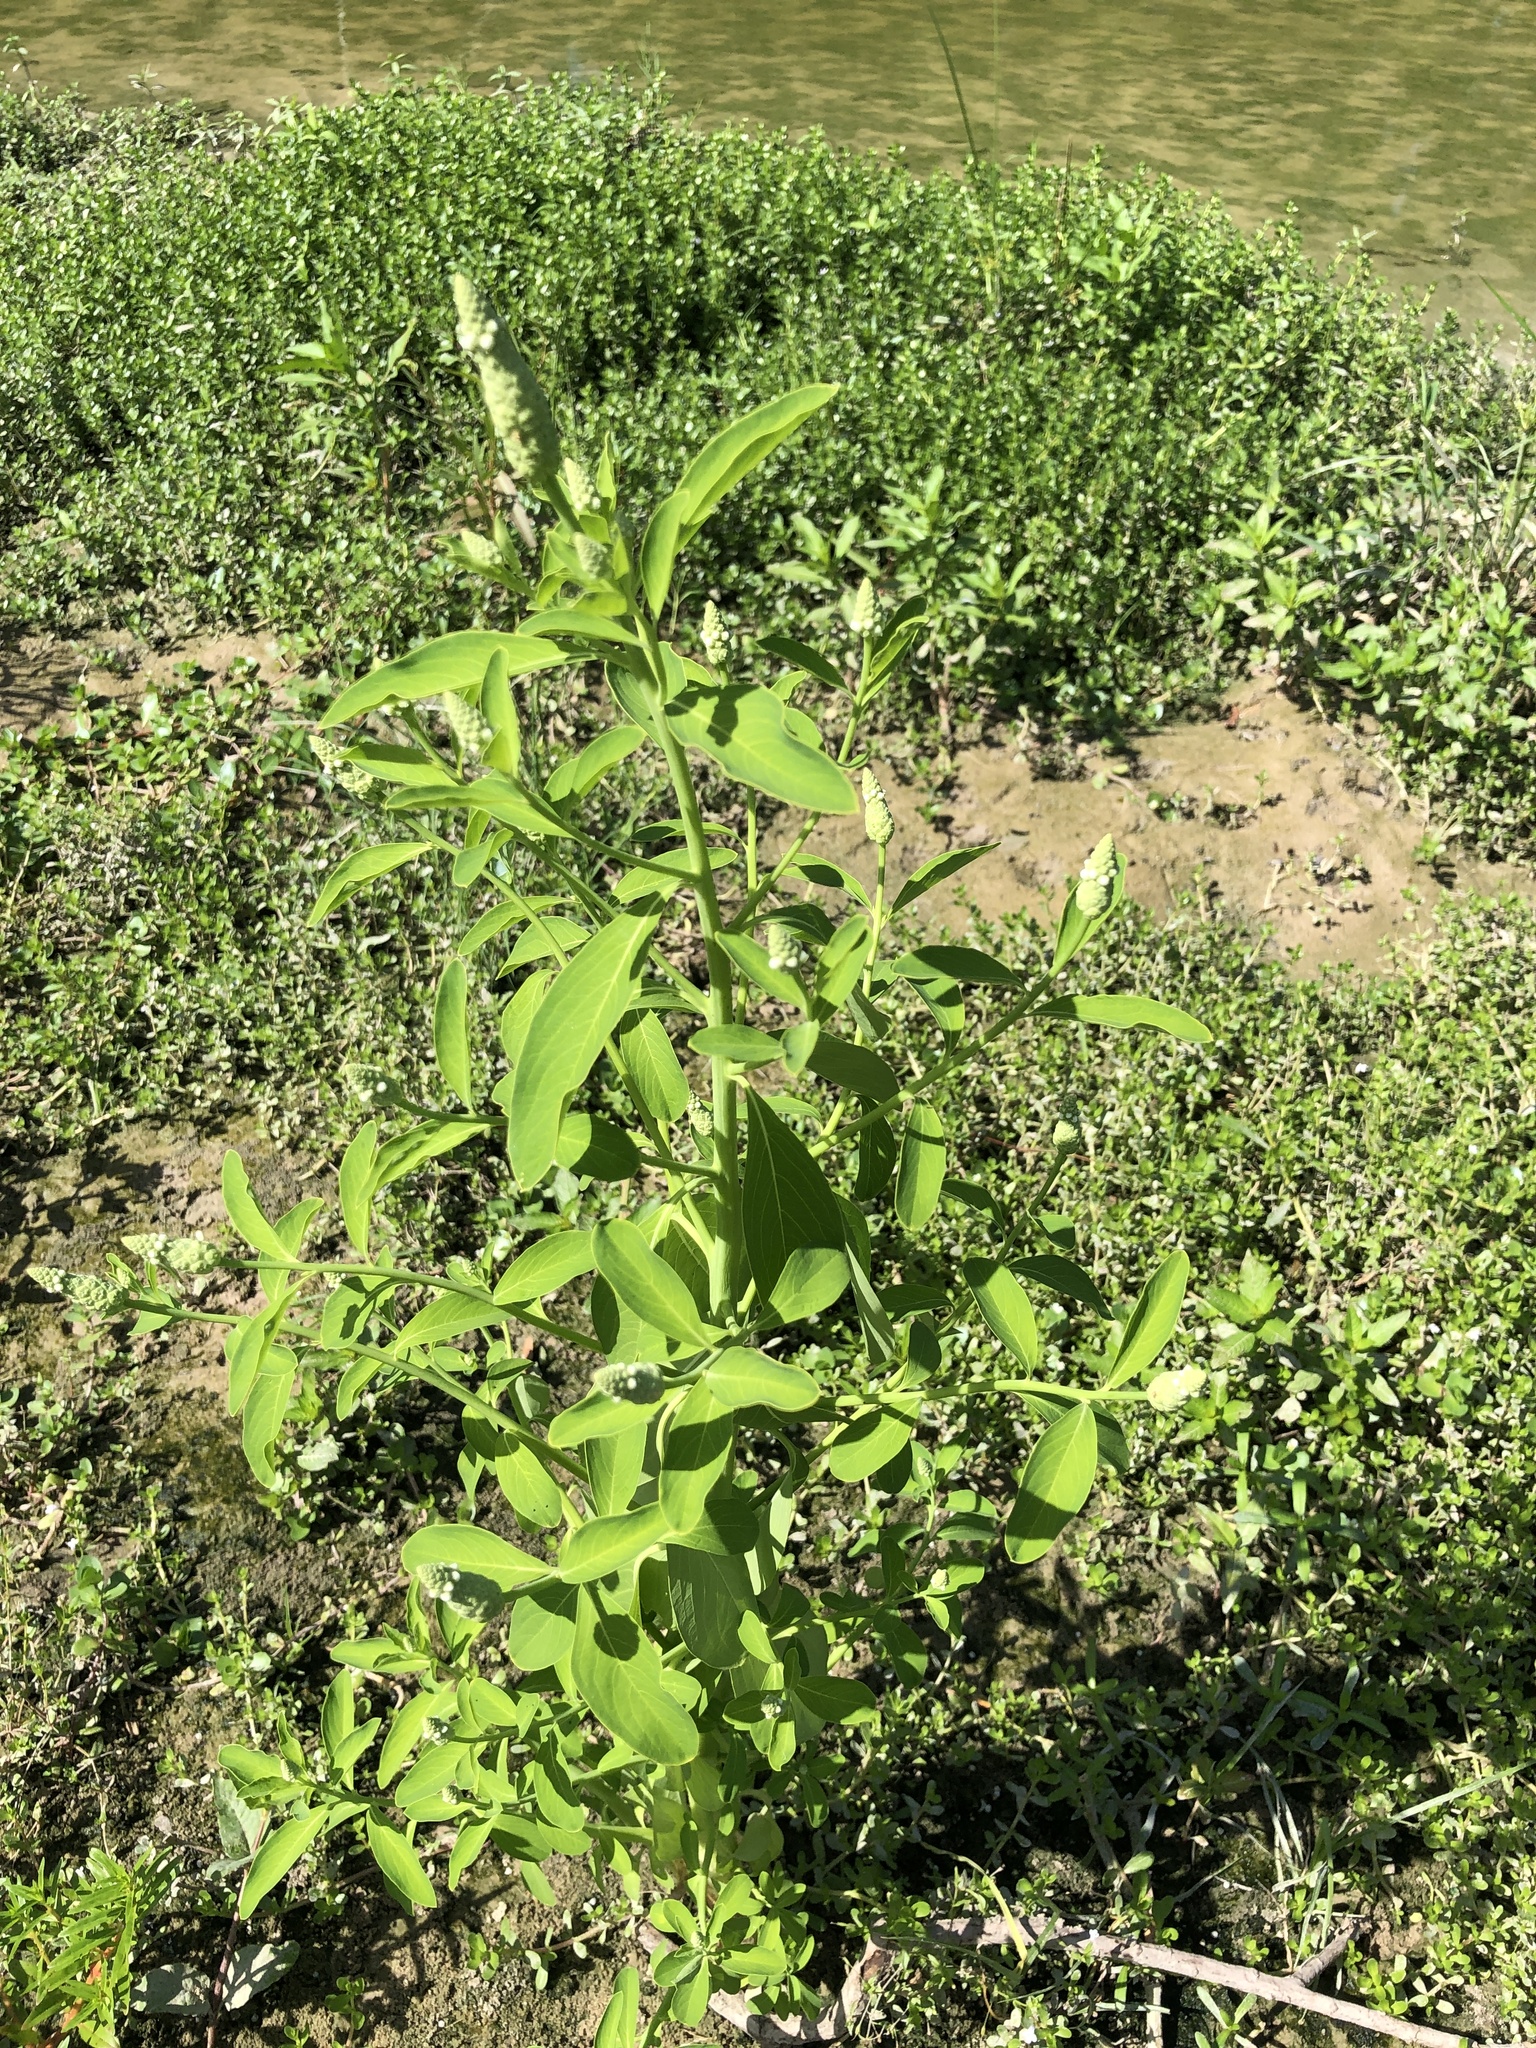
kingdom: Plantae
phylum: Tracheophyta
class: Magnoliopsida
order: Solanales
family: Sphenocleaceae
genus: Sphenoclea
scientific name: Sphenoclea zeylanica
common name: Chickenspike
